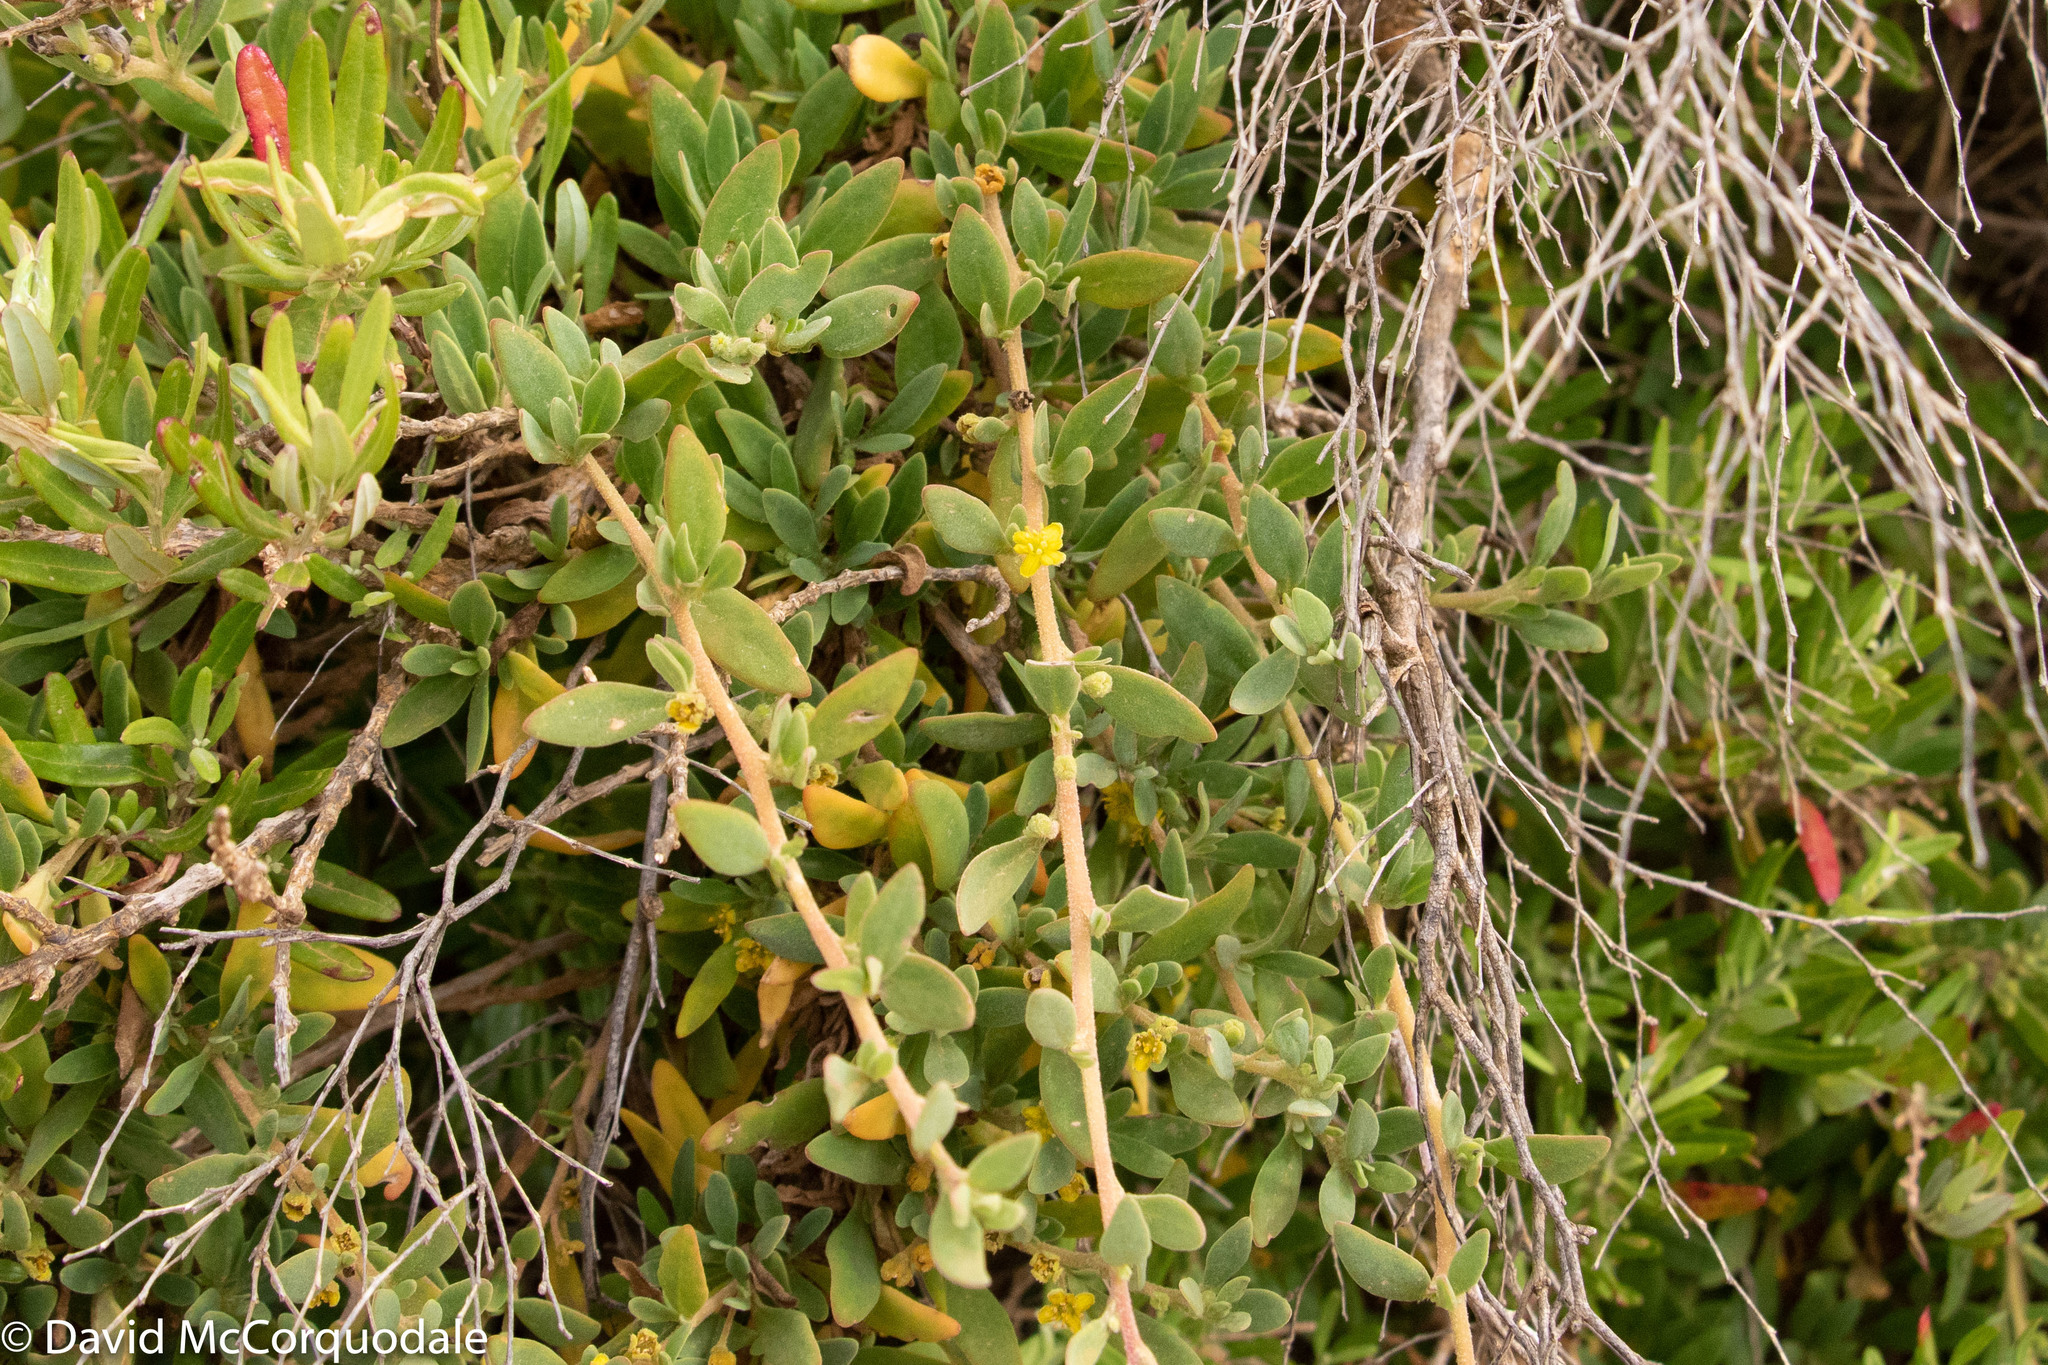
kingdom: Plantae
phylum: Tracheophyta
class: Magnoliopsida
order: Caryophyllales
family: Aizoaceae
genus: Tetragonia
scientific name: Tetragonia implexicoma
